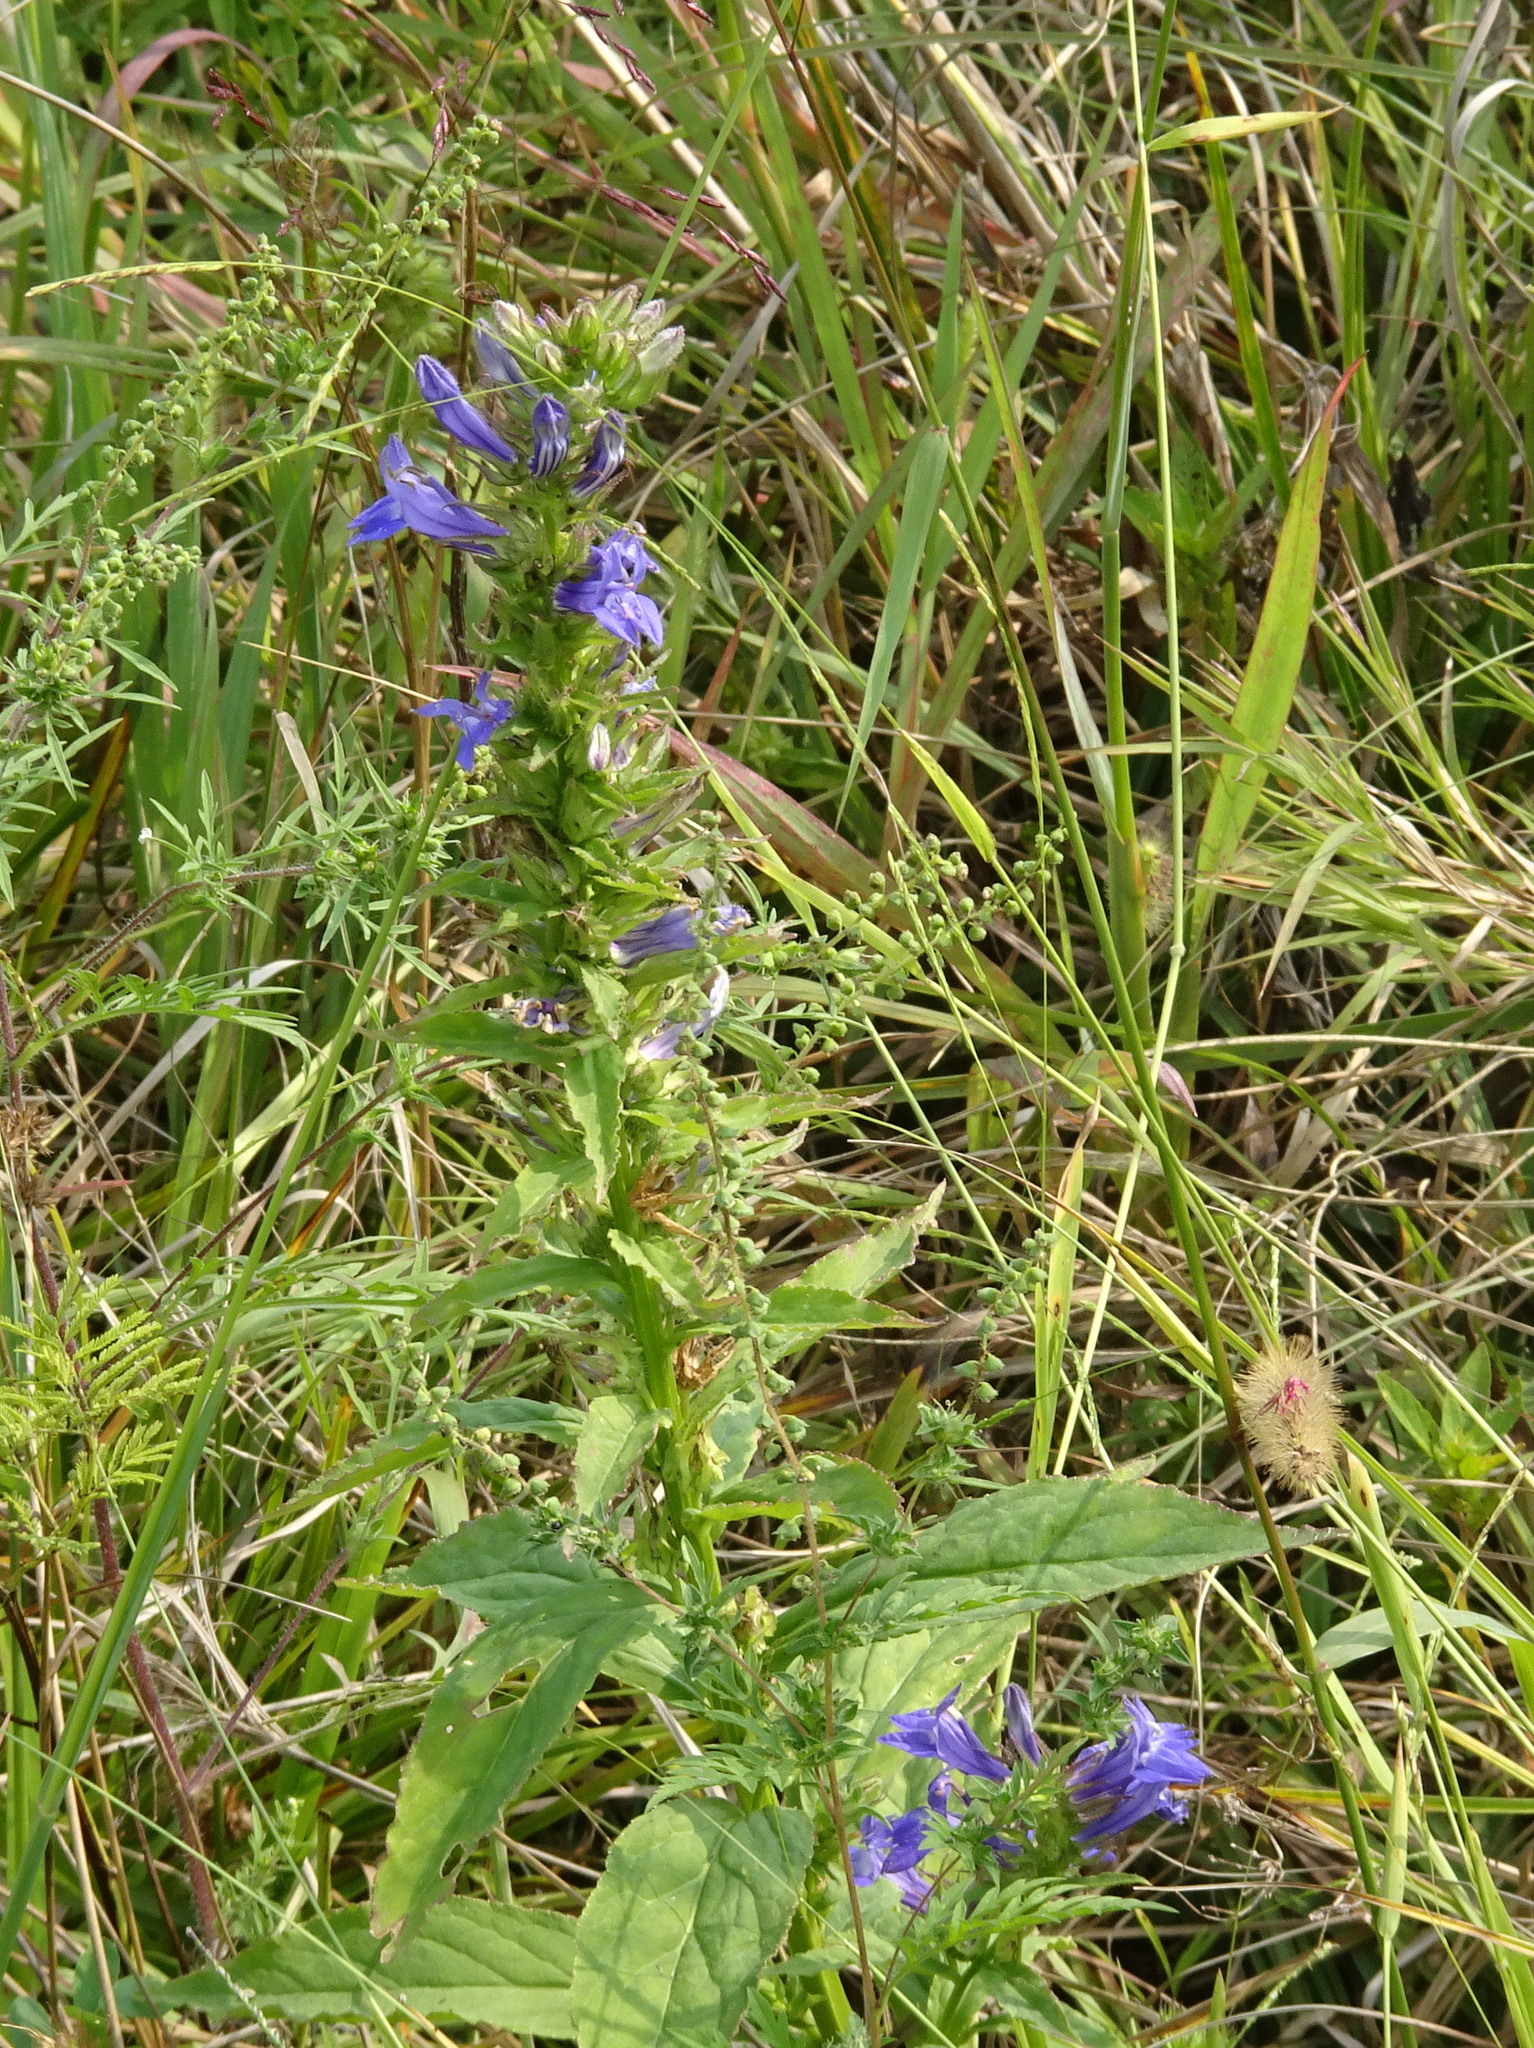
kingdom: Plantae
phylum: Tracheophyta
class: Magnoliopsida
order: Asterales
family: Campanulaceae
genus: Lobelia
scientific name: Lobelia siphilitica
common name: Great lobelia
